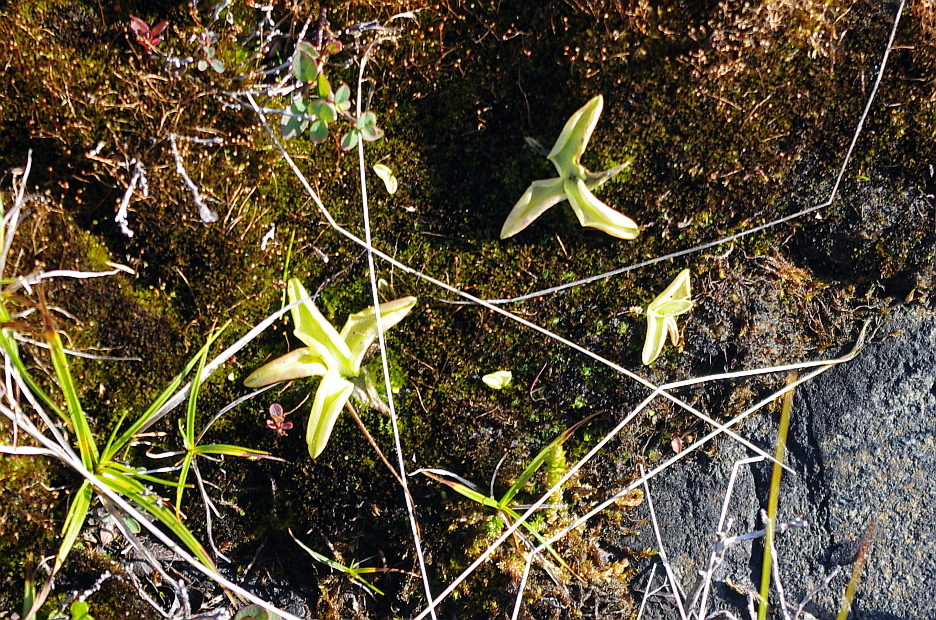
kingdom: Plantae
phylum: Tracheophyta
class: Magnoliopsida
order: Lamiales
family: Lentibulariaceae
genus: Pinguicula
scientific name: Pinguicula vulgaris
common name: Common butterwort
